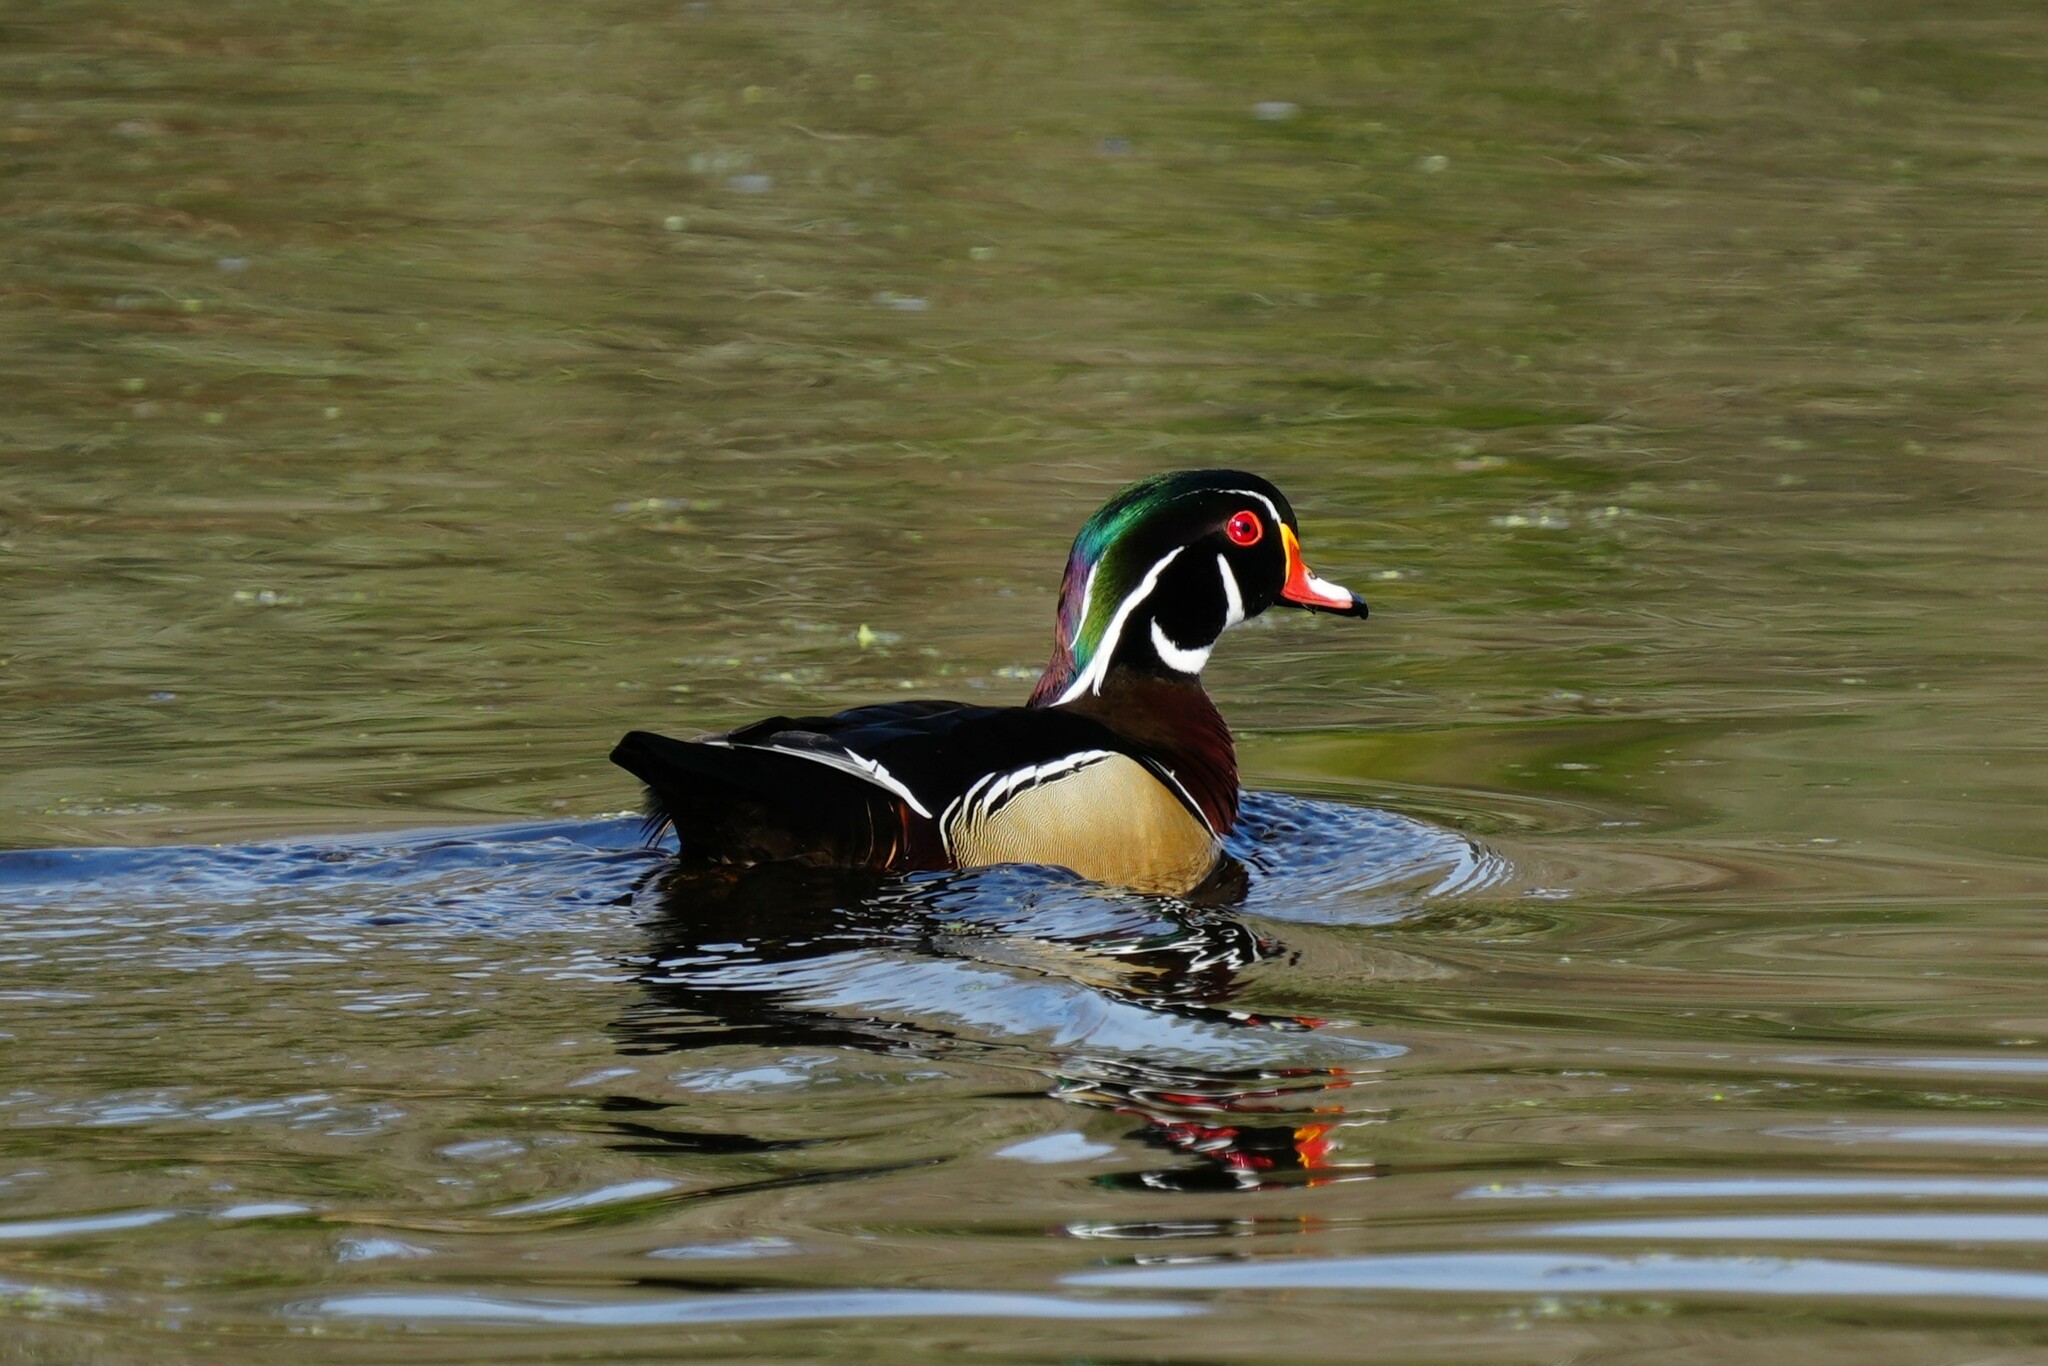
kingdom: Animalia
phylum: Chordata
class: Aves
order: Anseriformes
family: Anatidae
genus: Aix
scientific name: Aix sponsa
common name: Wood duck
